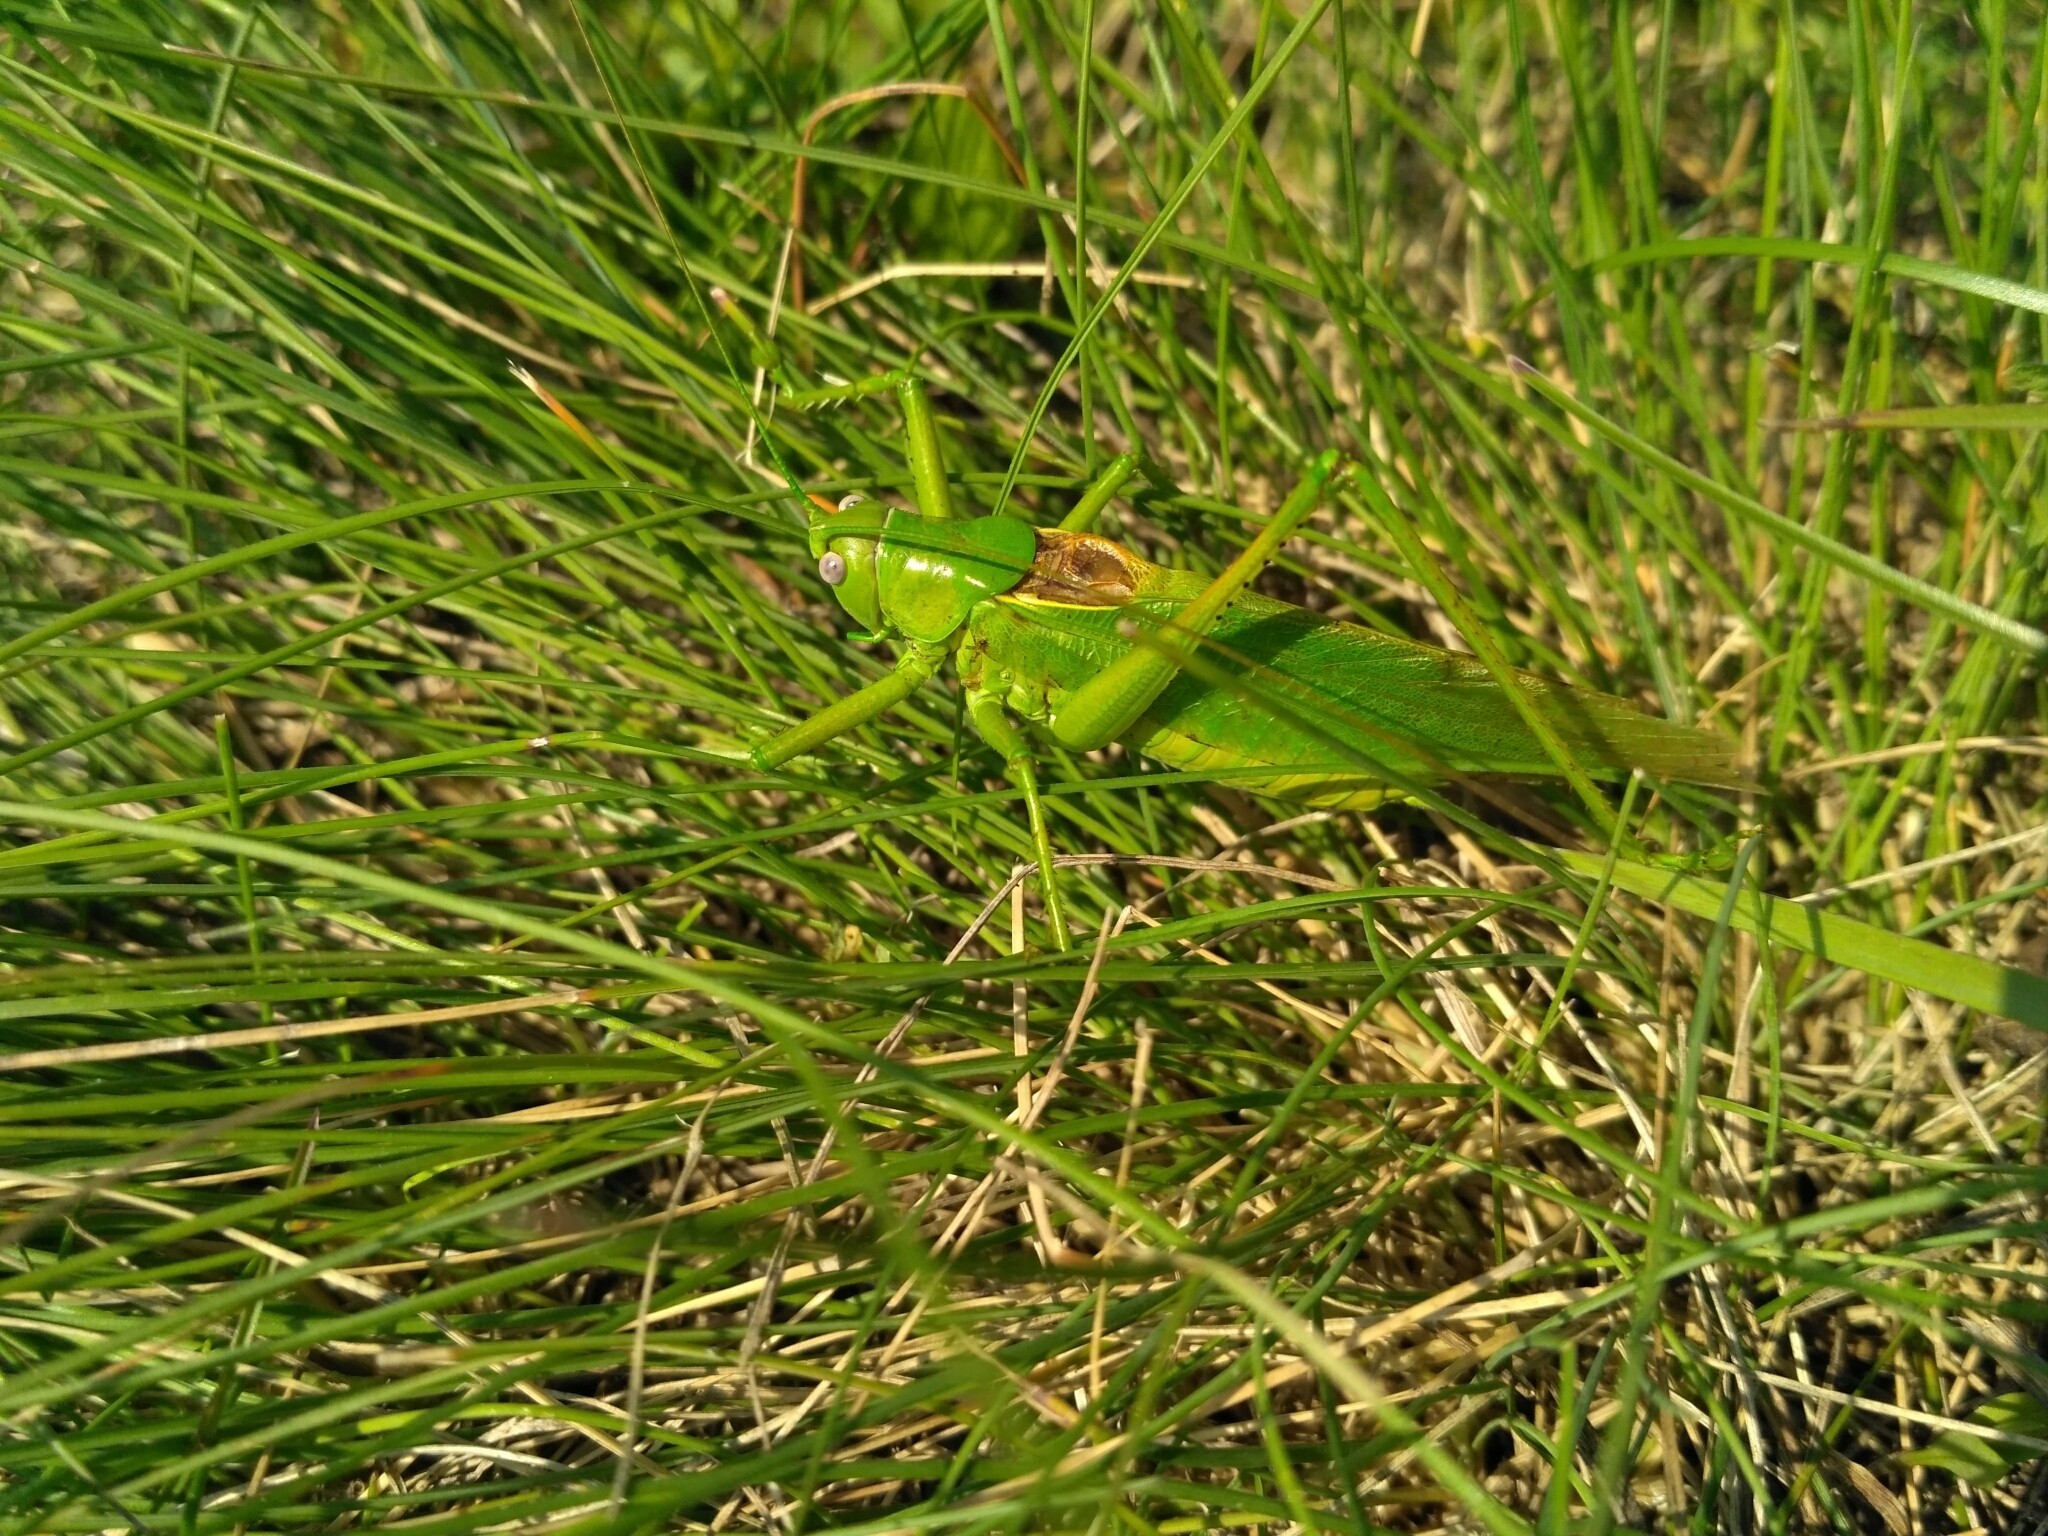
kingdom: Animalia
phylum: Arthropoda
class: Insecta
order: Orthoptera
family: Tettigoniidae
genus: Tettigonia
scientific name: Tettigonia caudata
